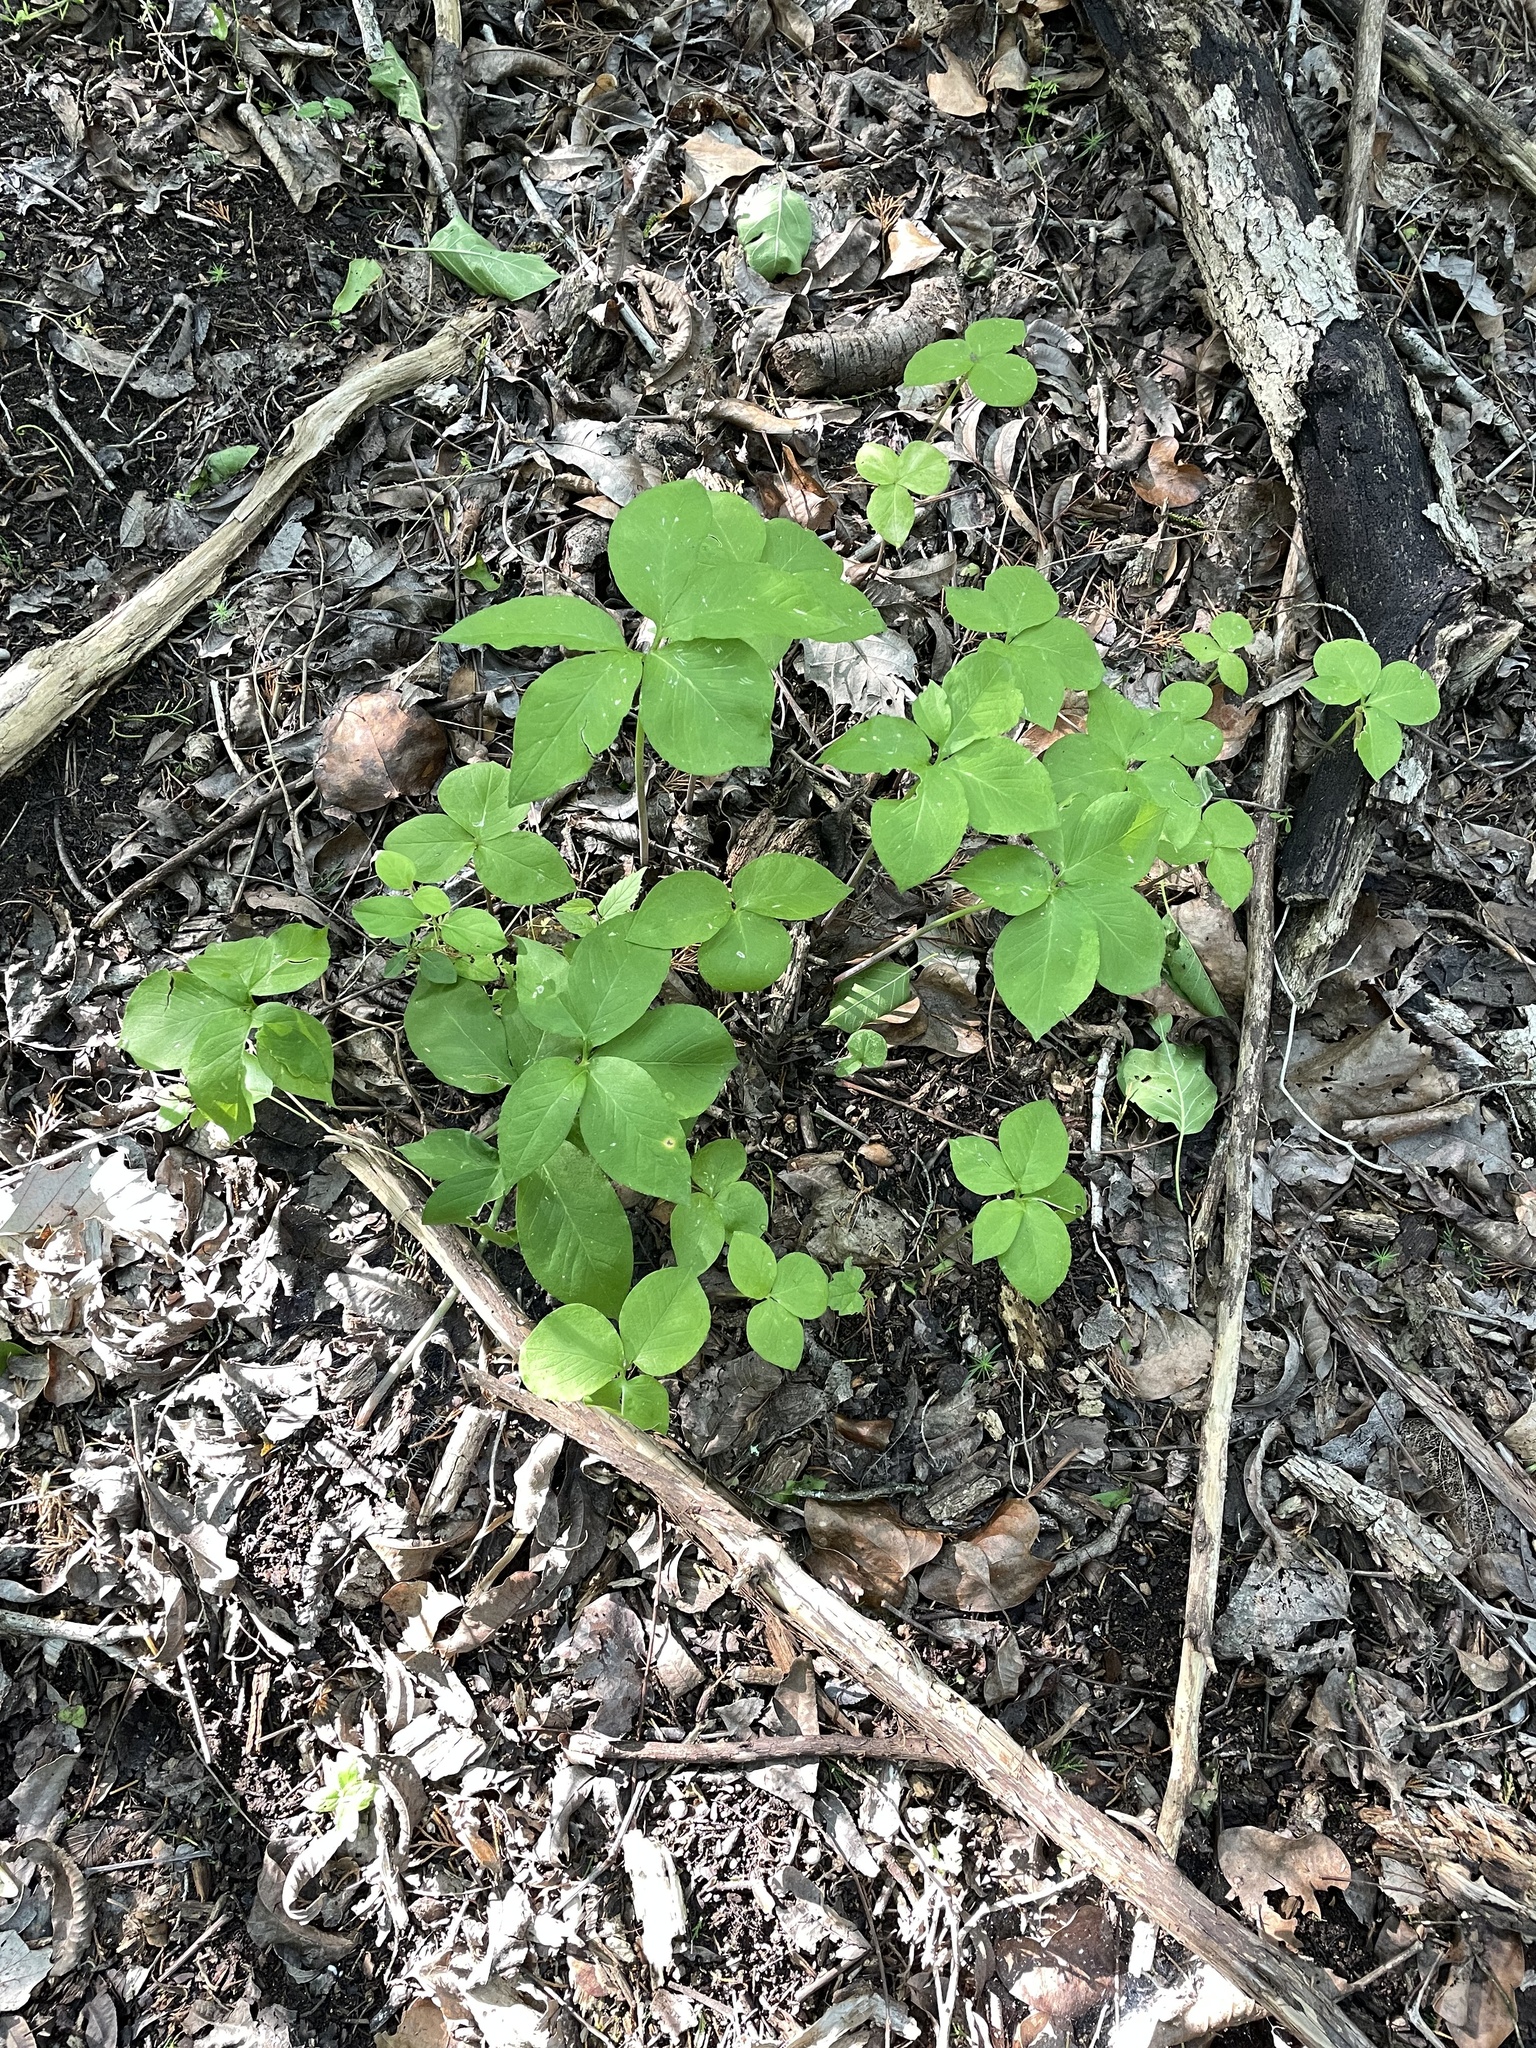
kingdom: Plantae
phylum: Tracheophyta
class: Liliopsida
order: Alismatales
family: Araceae
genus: Arisaema
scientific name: Arisaema dracontium
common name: Dragon-arum
